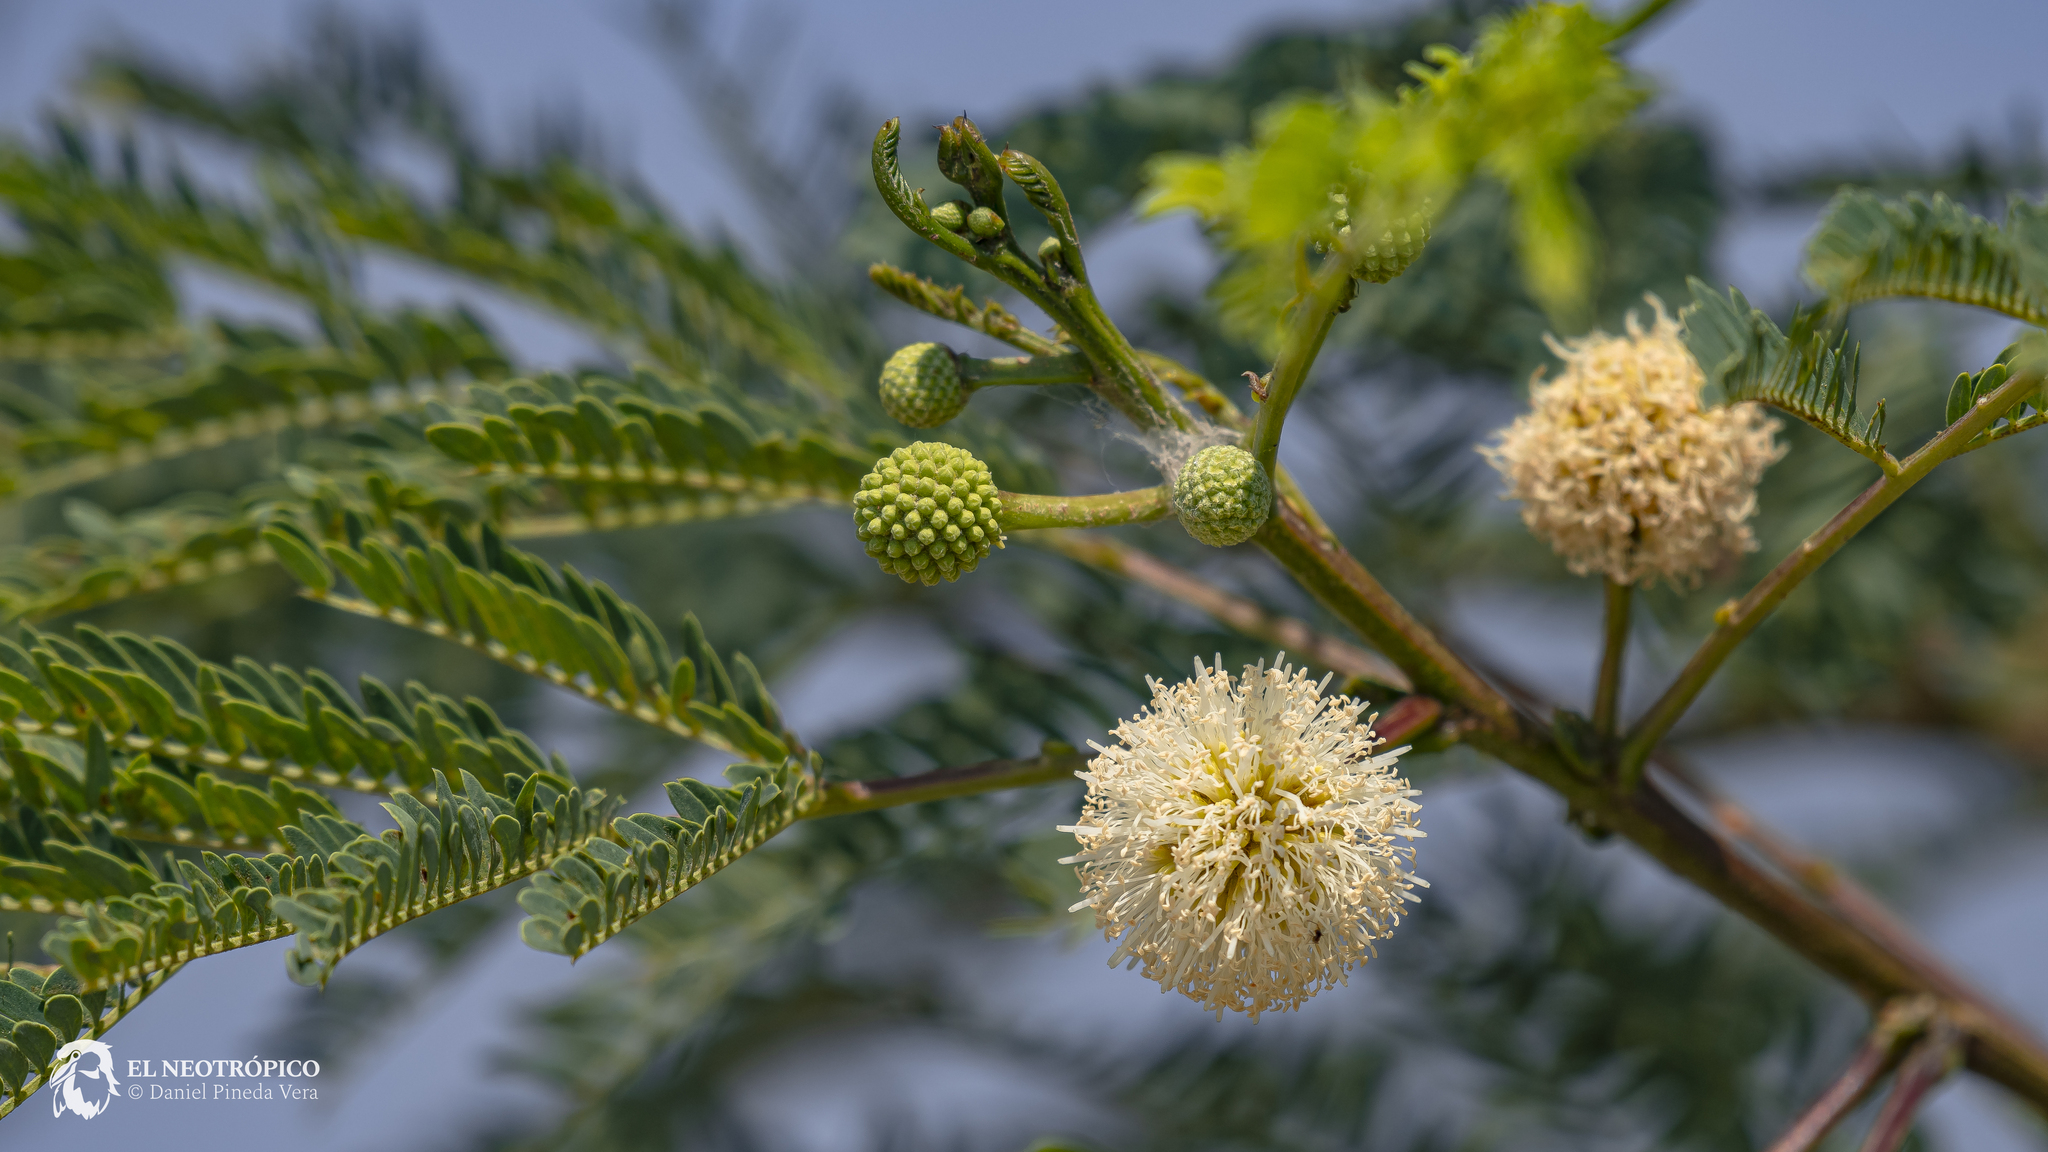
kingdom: Plantae
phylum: Tracheophyta
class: Magnoliopsida
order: Fabales
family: Fabaceae
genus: Leucaena
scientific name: Leucaena leucocephala
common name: White leadtree
